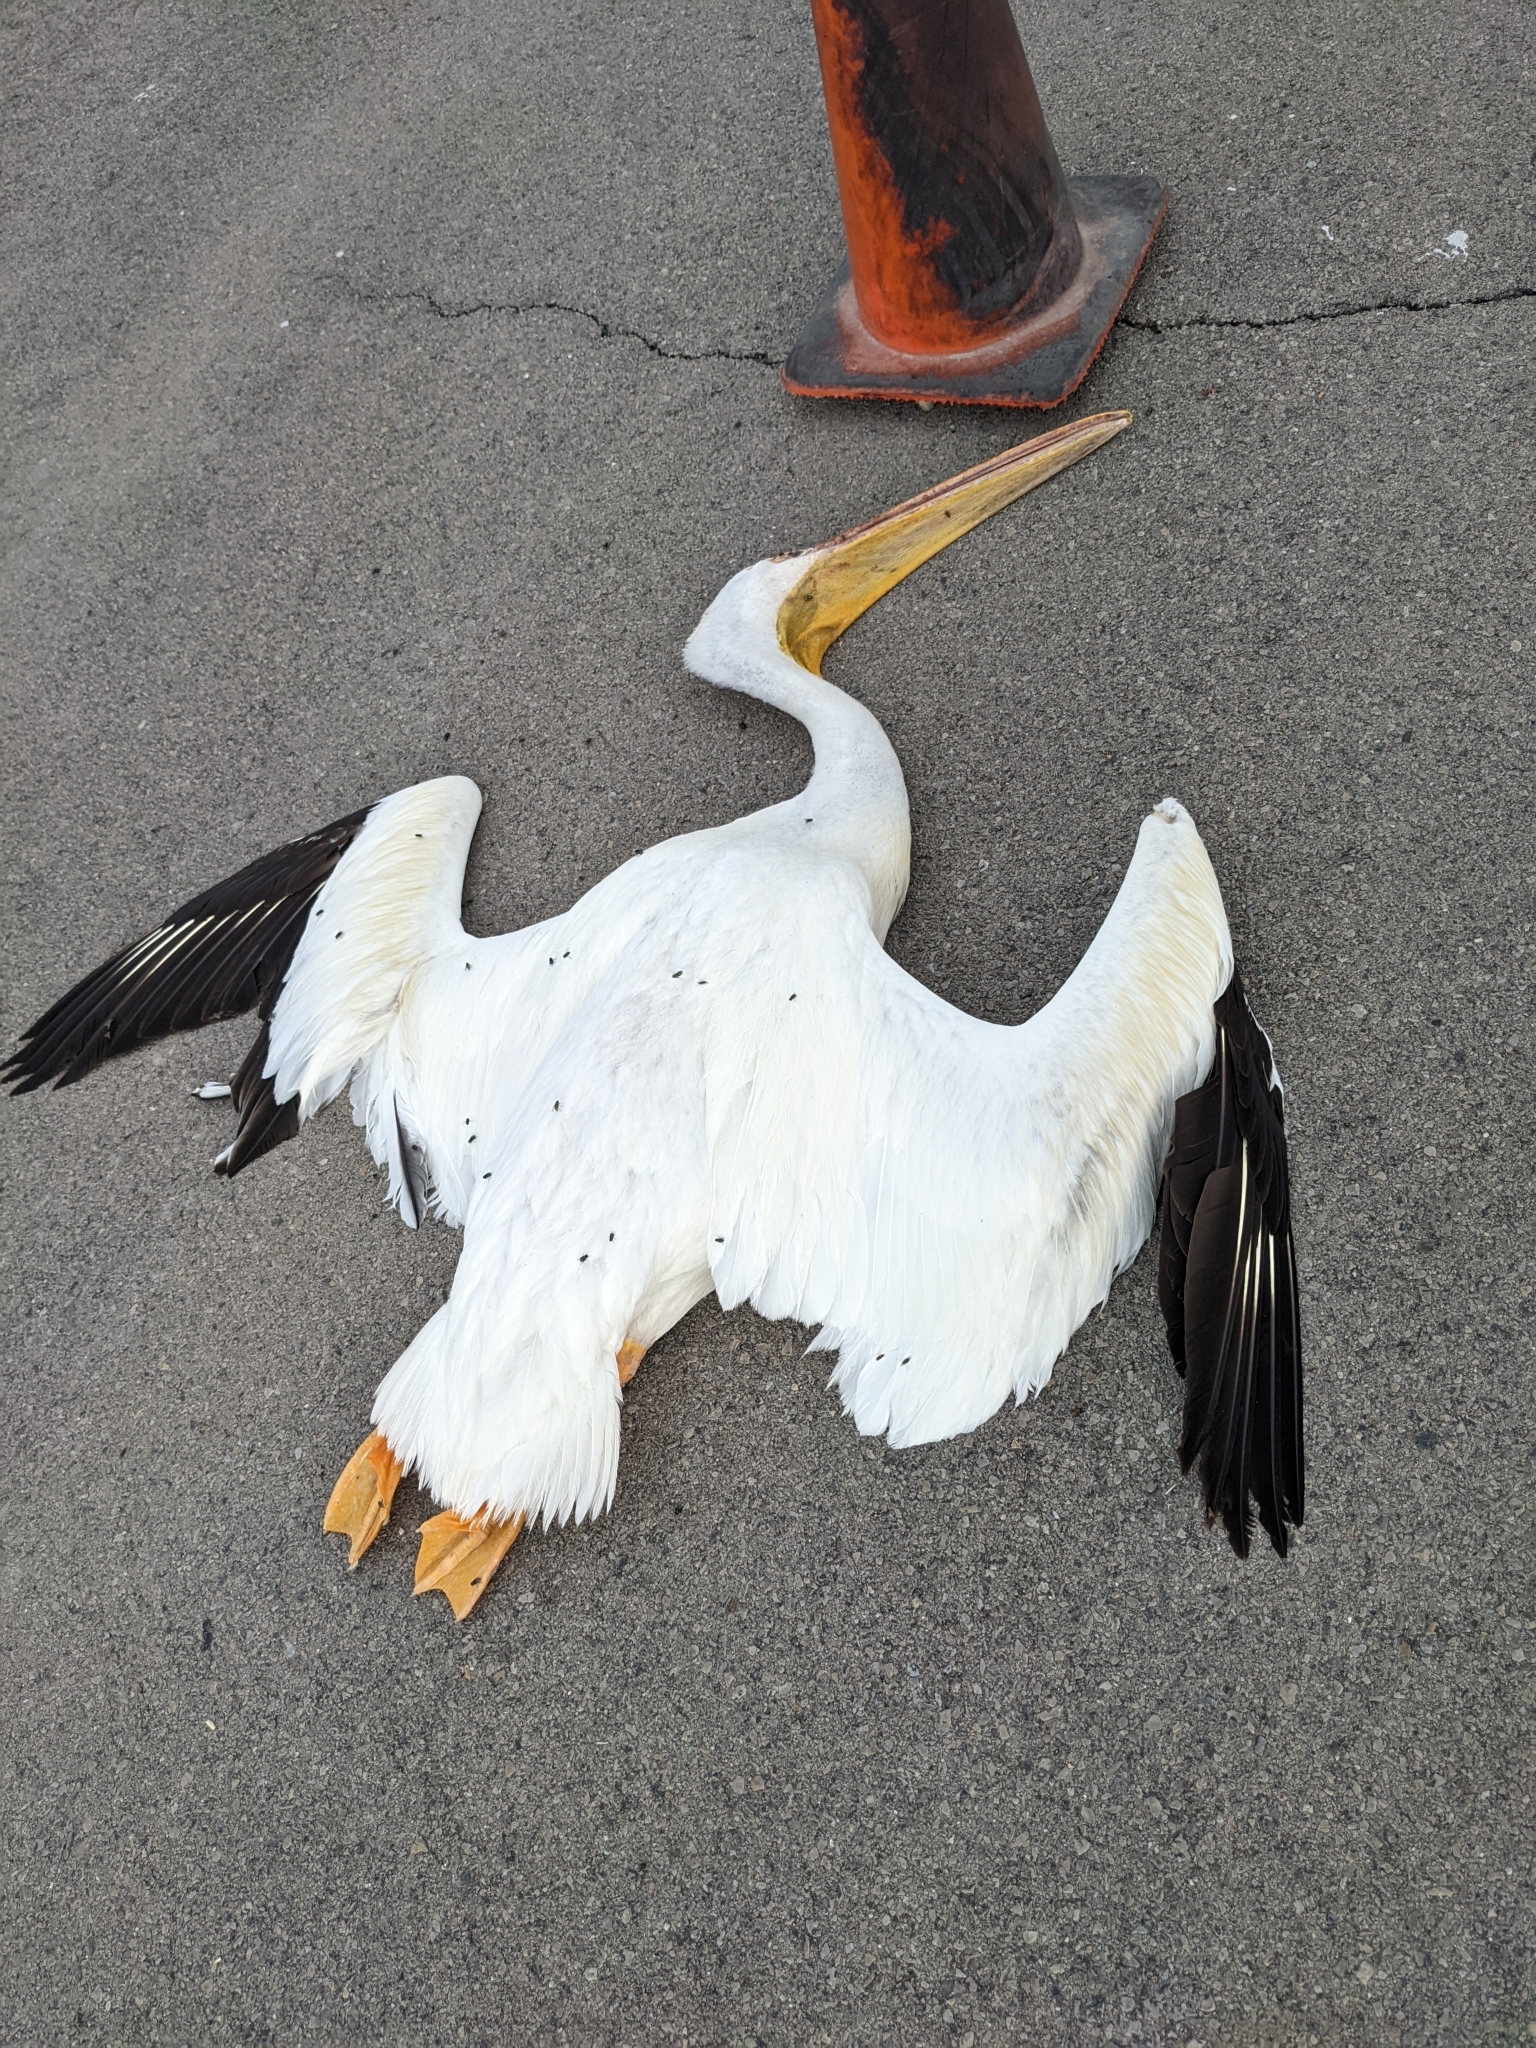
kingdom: Animalia
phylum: Chordata
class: Aves
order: Pelecaniformes
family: Pelecanidae
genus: Pelecanus
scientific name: Pelecanus erythrorhynchos
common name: American white pelican
